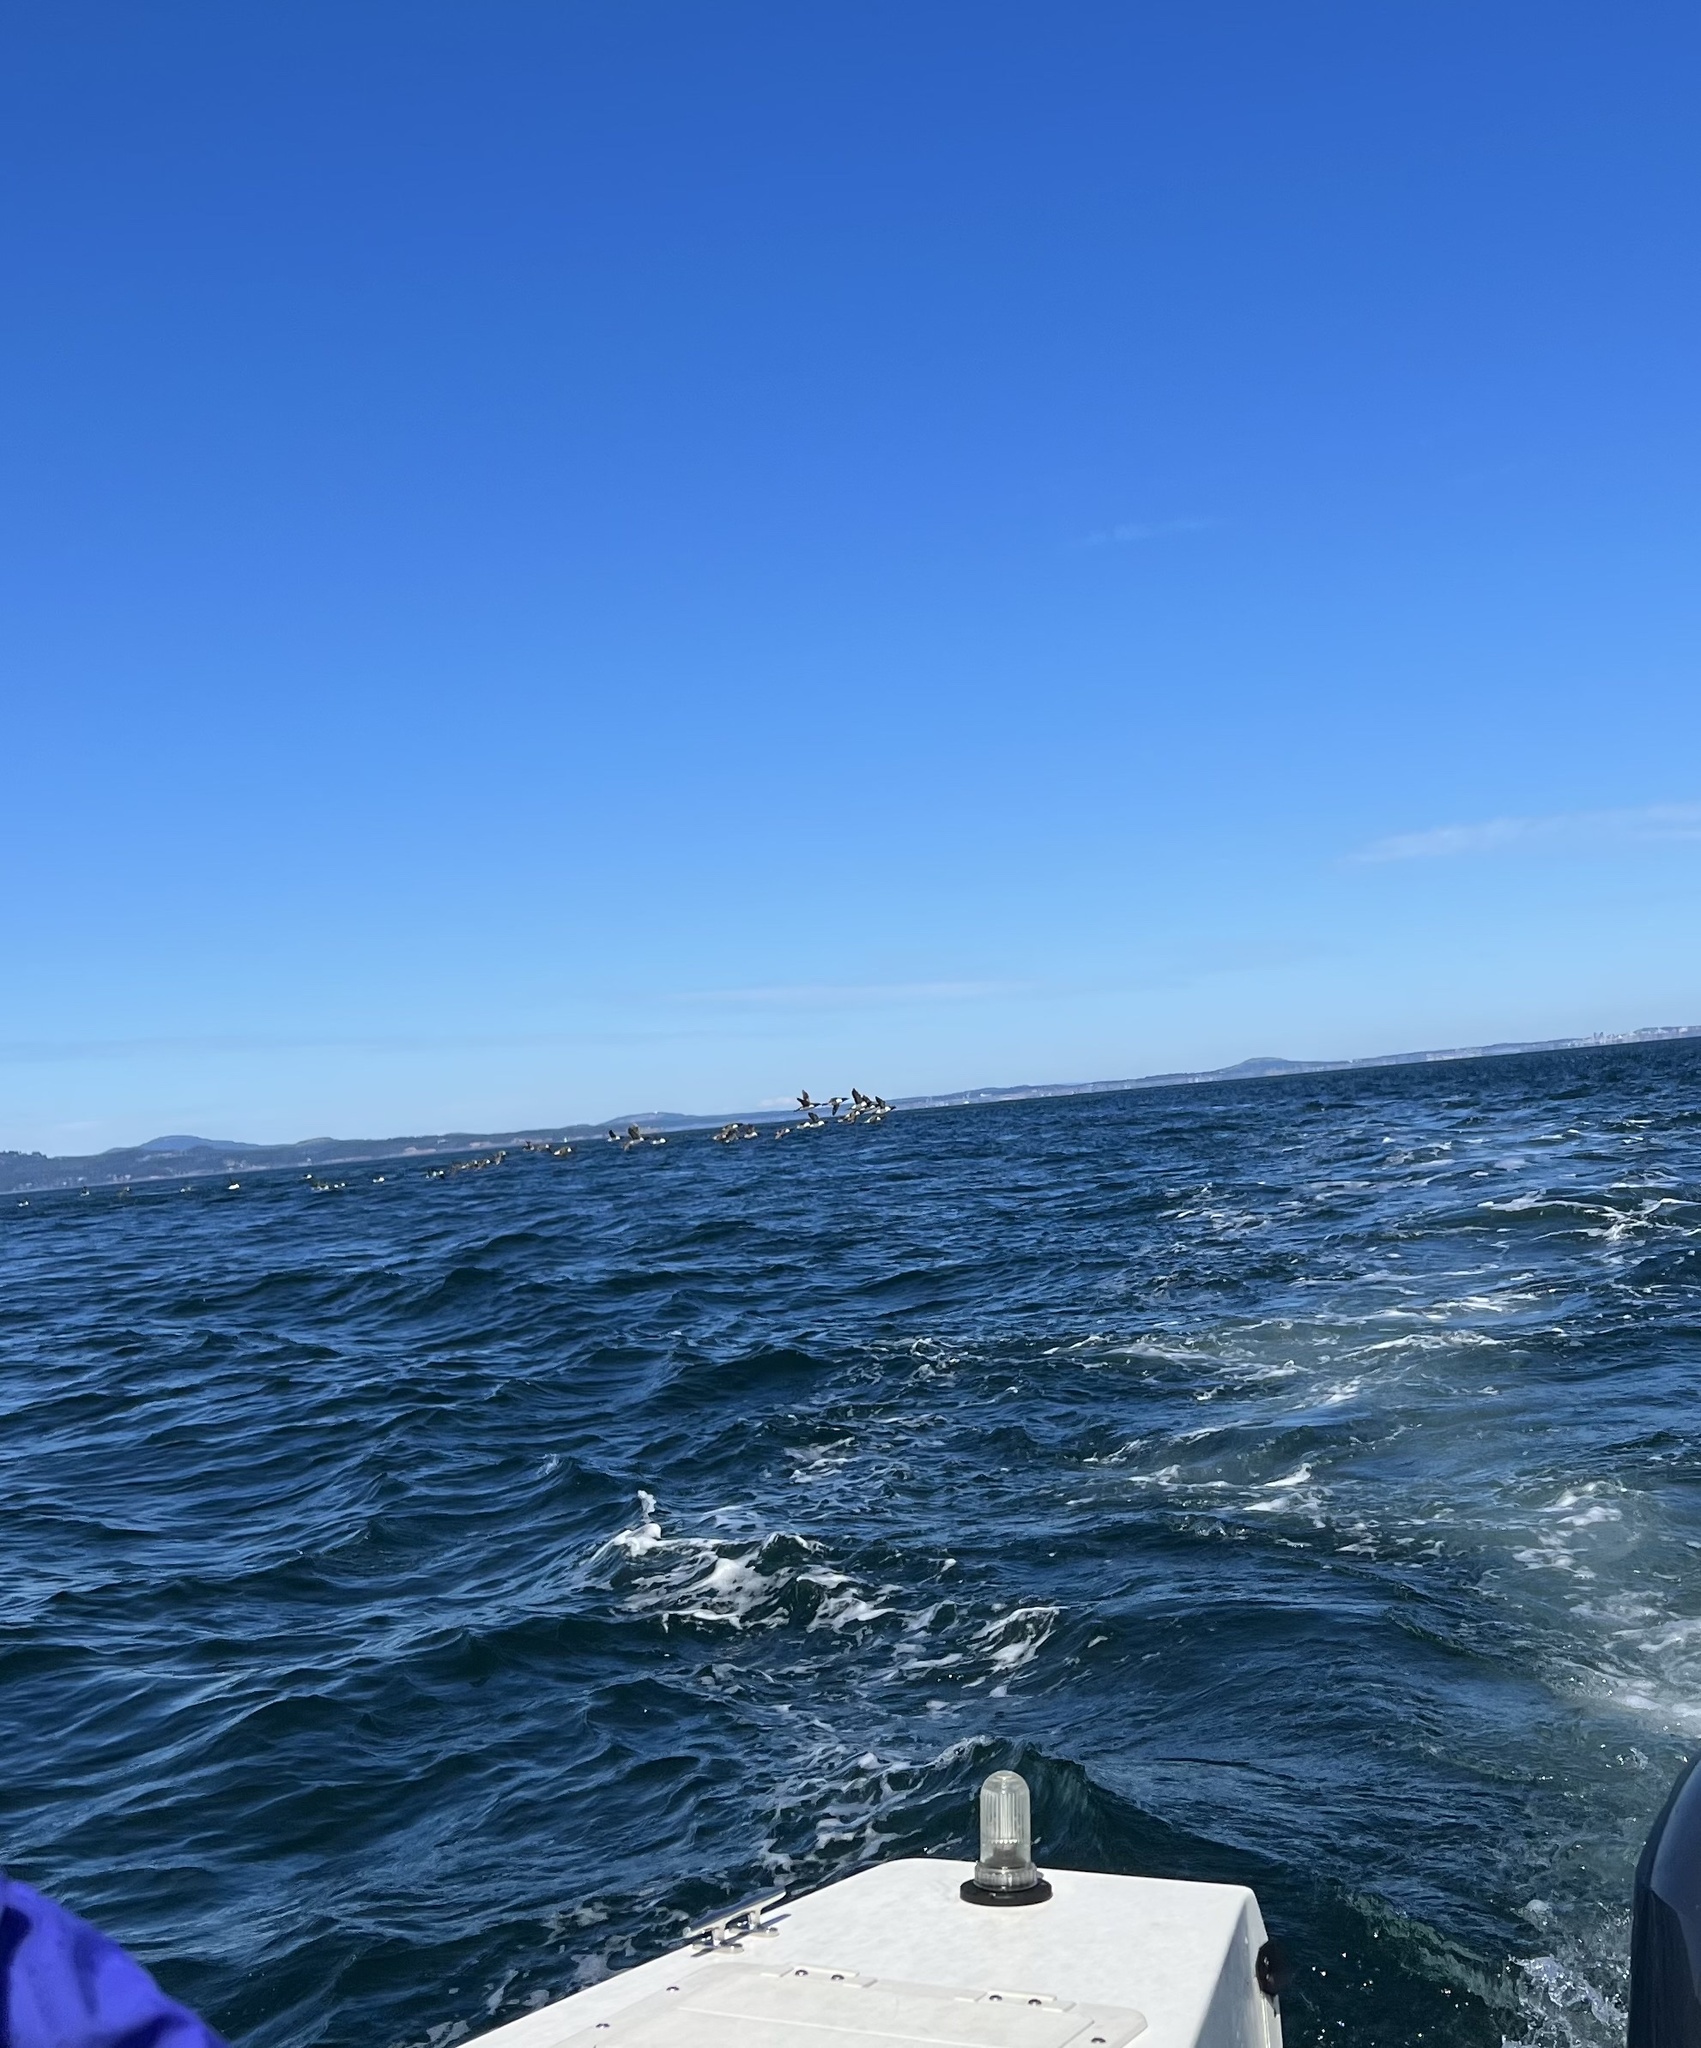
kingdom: Animalia
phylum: Chordata
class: Aves
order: Charadriiformes
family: Alcidae
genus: Uria
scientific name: Uria aalge
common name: Common murre
